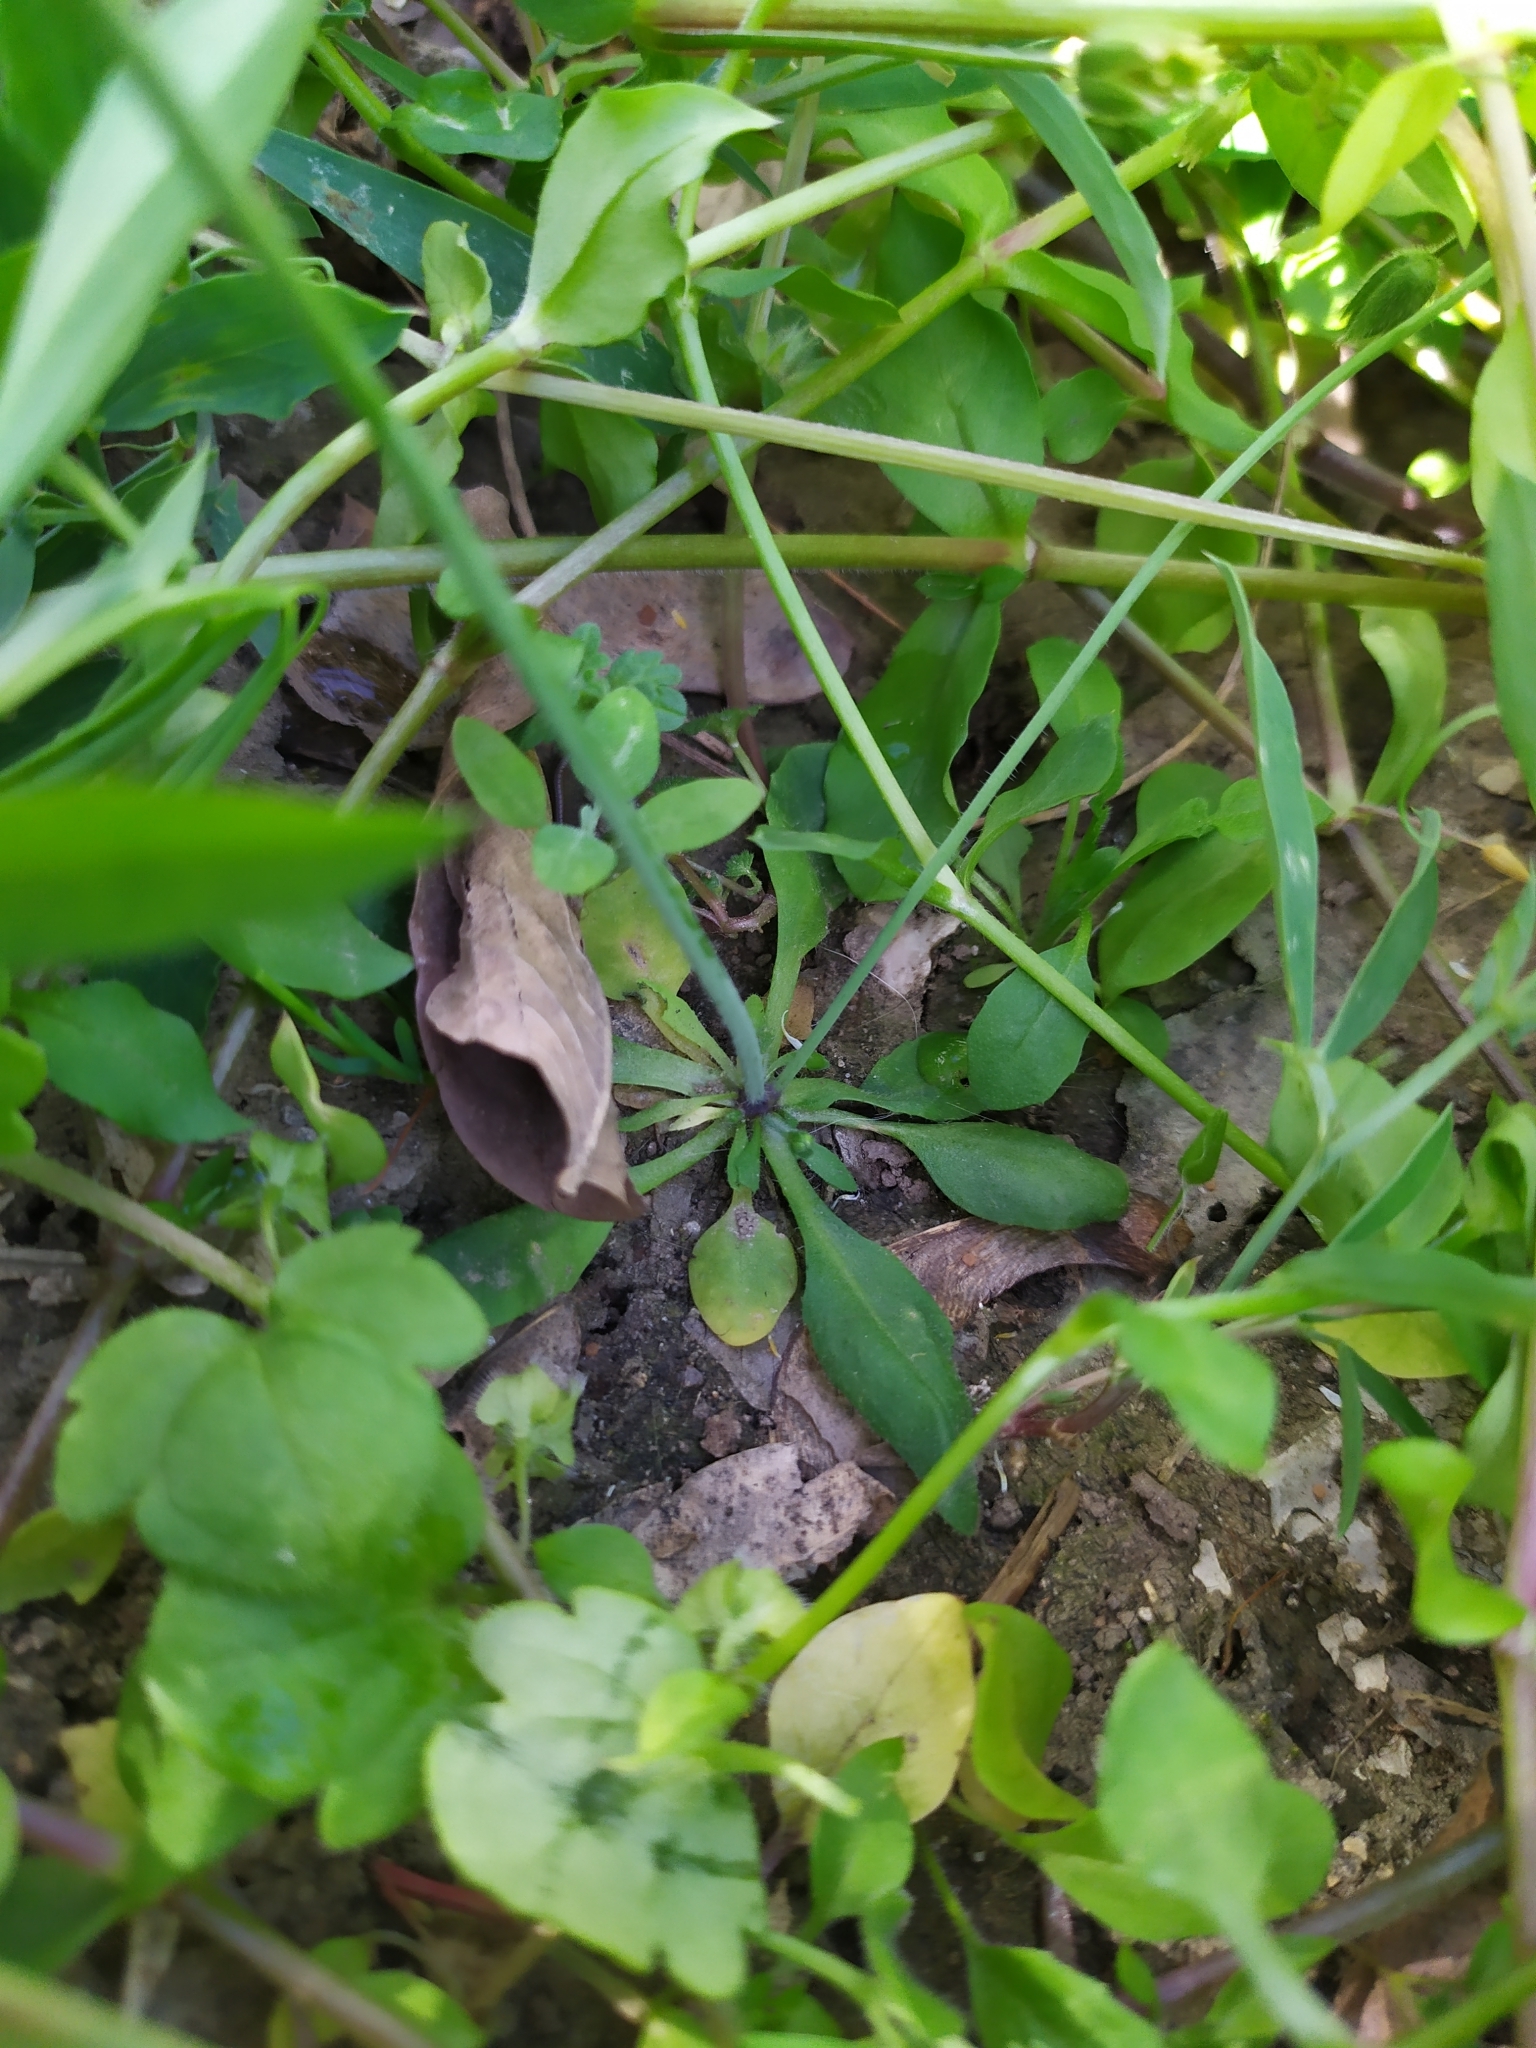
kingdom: Plantae
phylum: Tracheophyta
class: Magnoliopsida
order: Brassicales
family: Brassicaceae
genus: Arabidopsis
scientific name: Arabidopsis thaliana
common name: Thale cress
